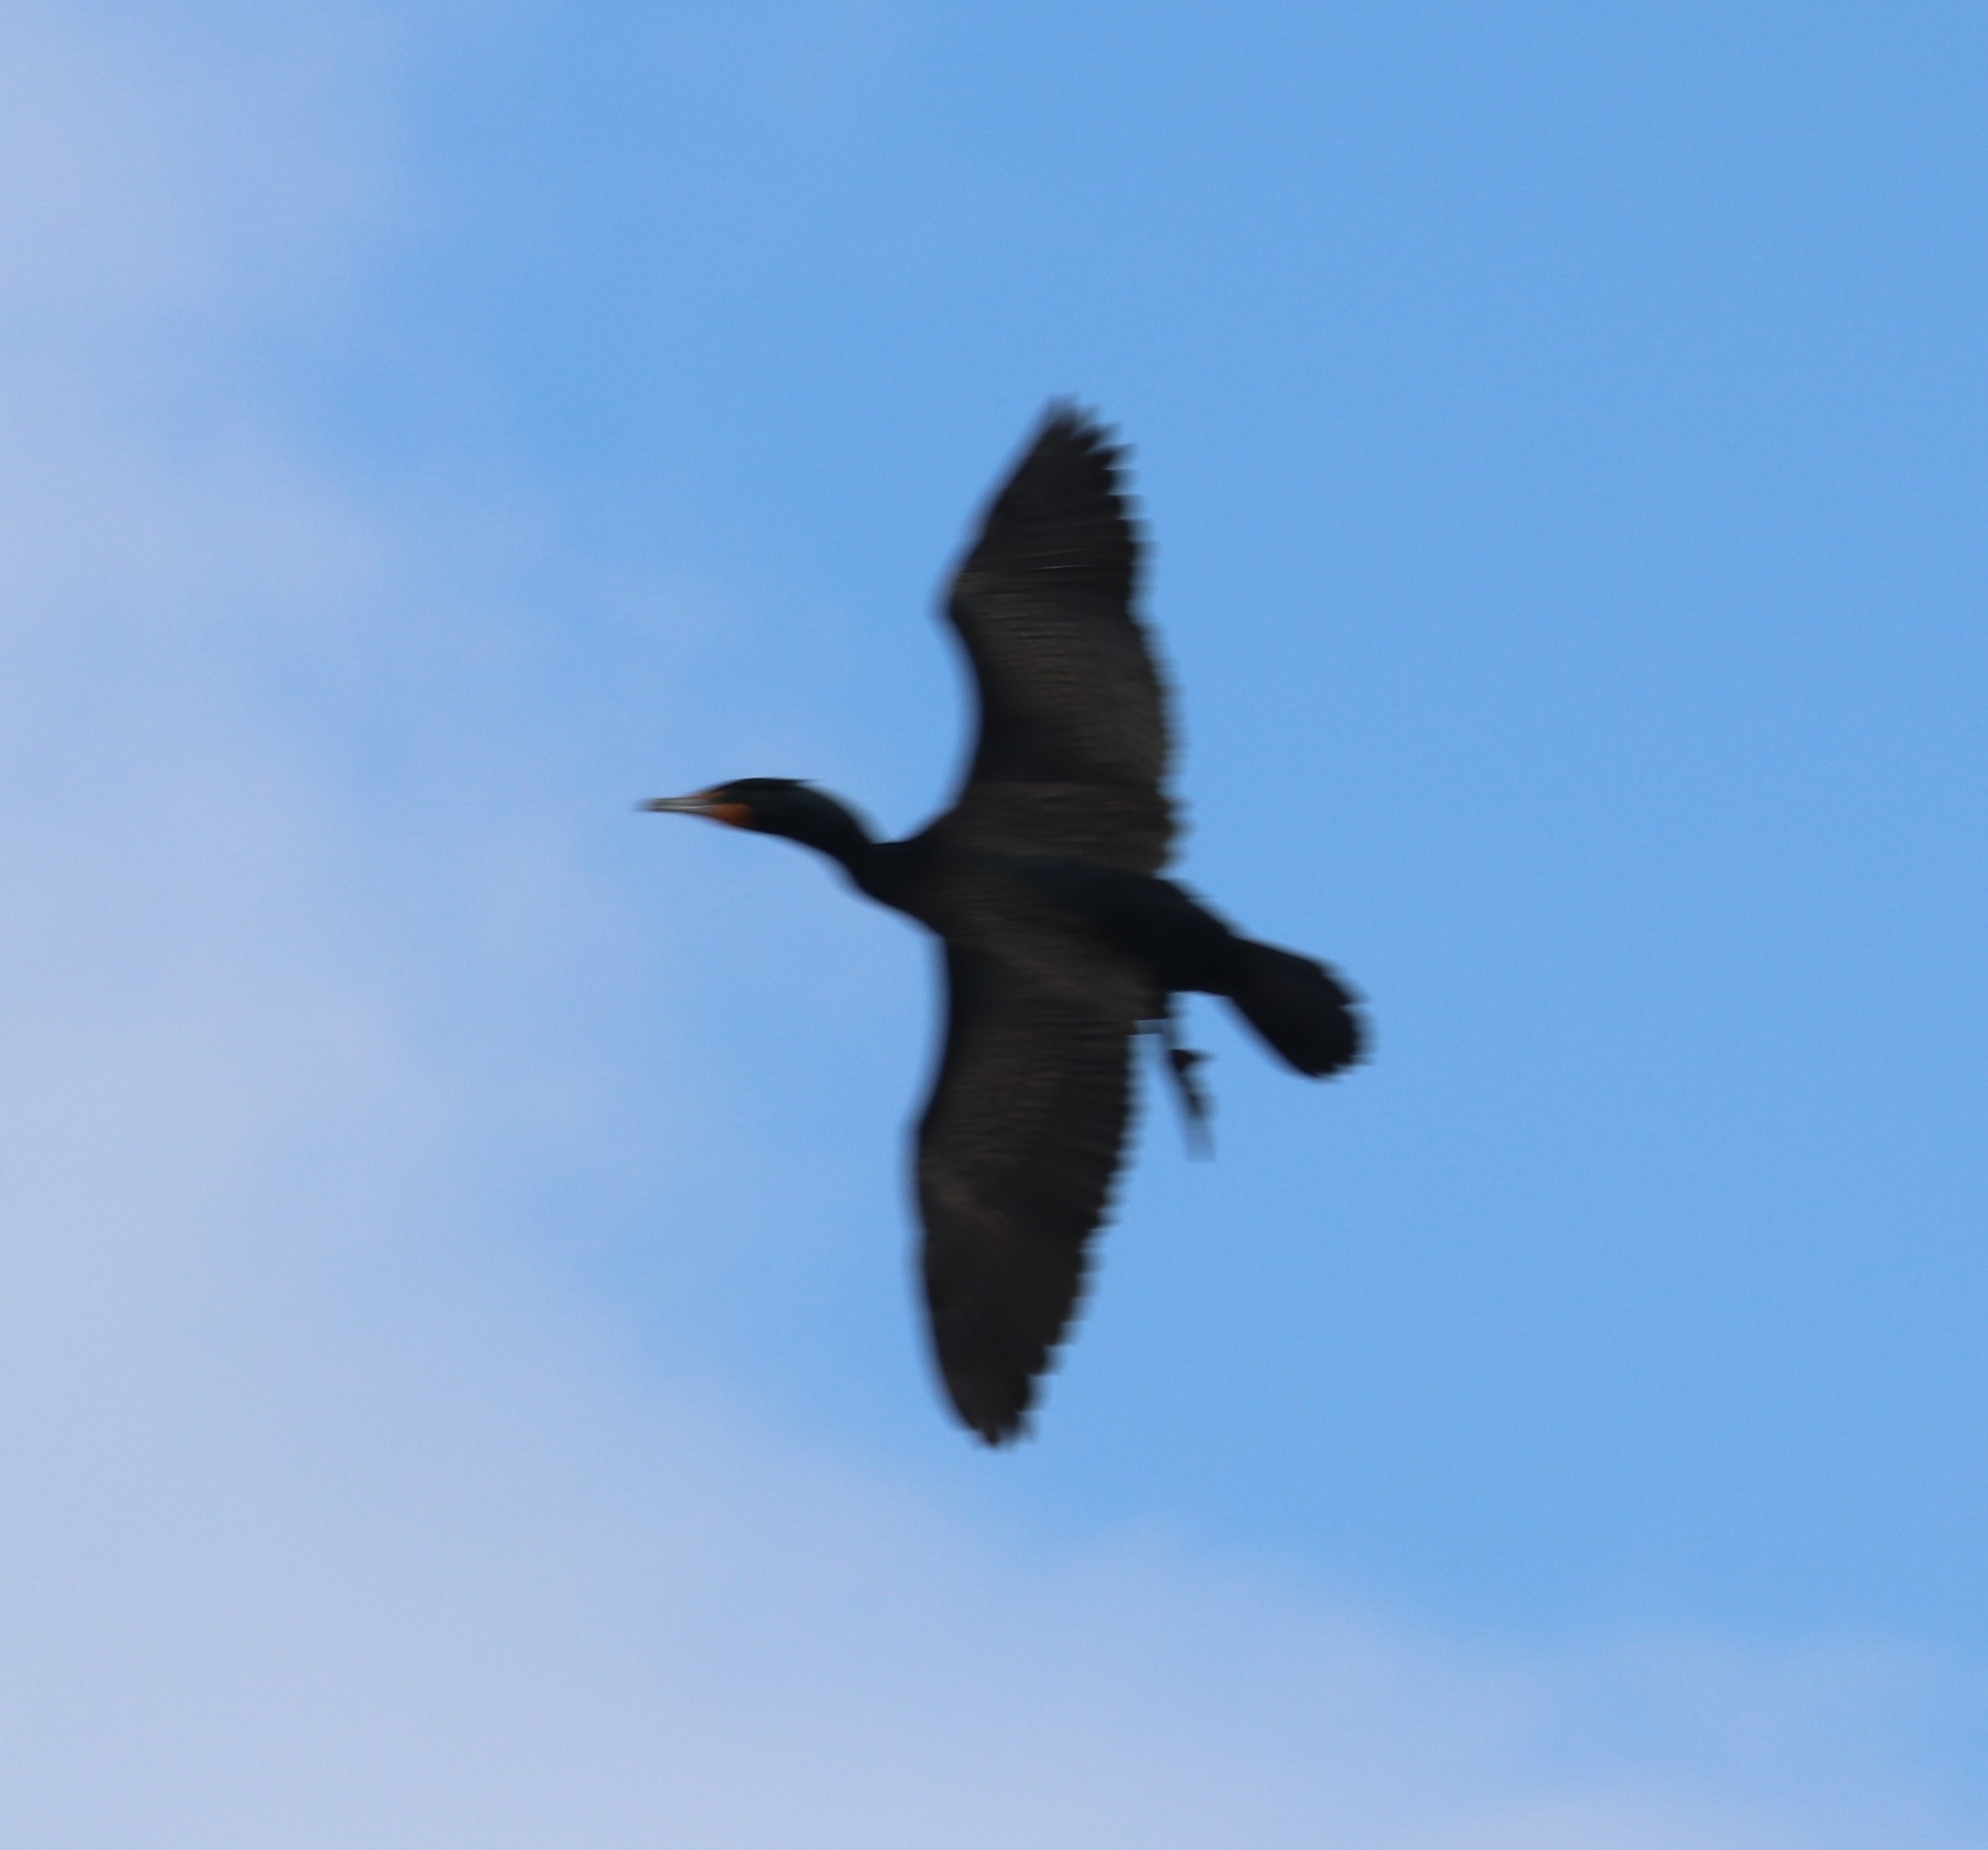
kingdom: Animalia
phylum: Chordata
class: Aves
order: Suliformes
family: Phalacrocoracidae
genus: Phalacrocorax
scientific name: Phalacrocorax auritus
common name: Double-crested cormorant
